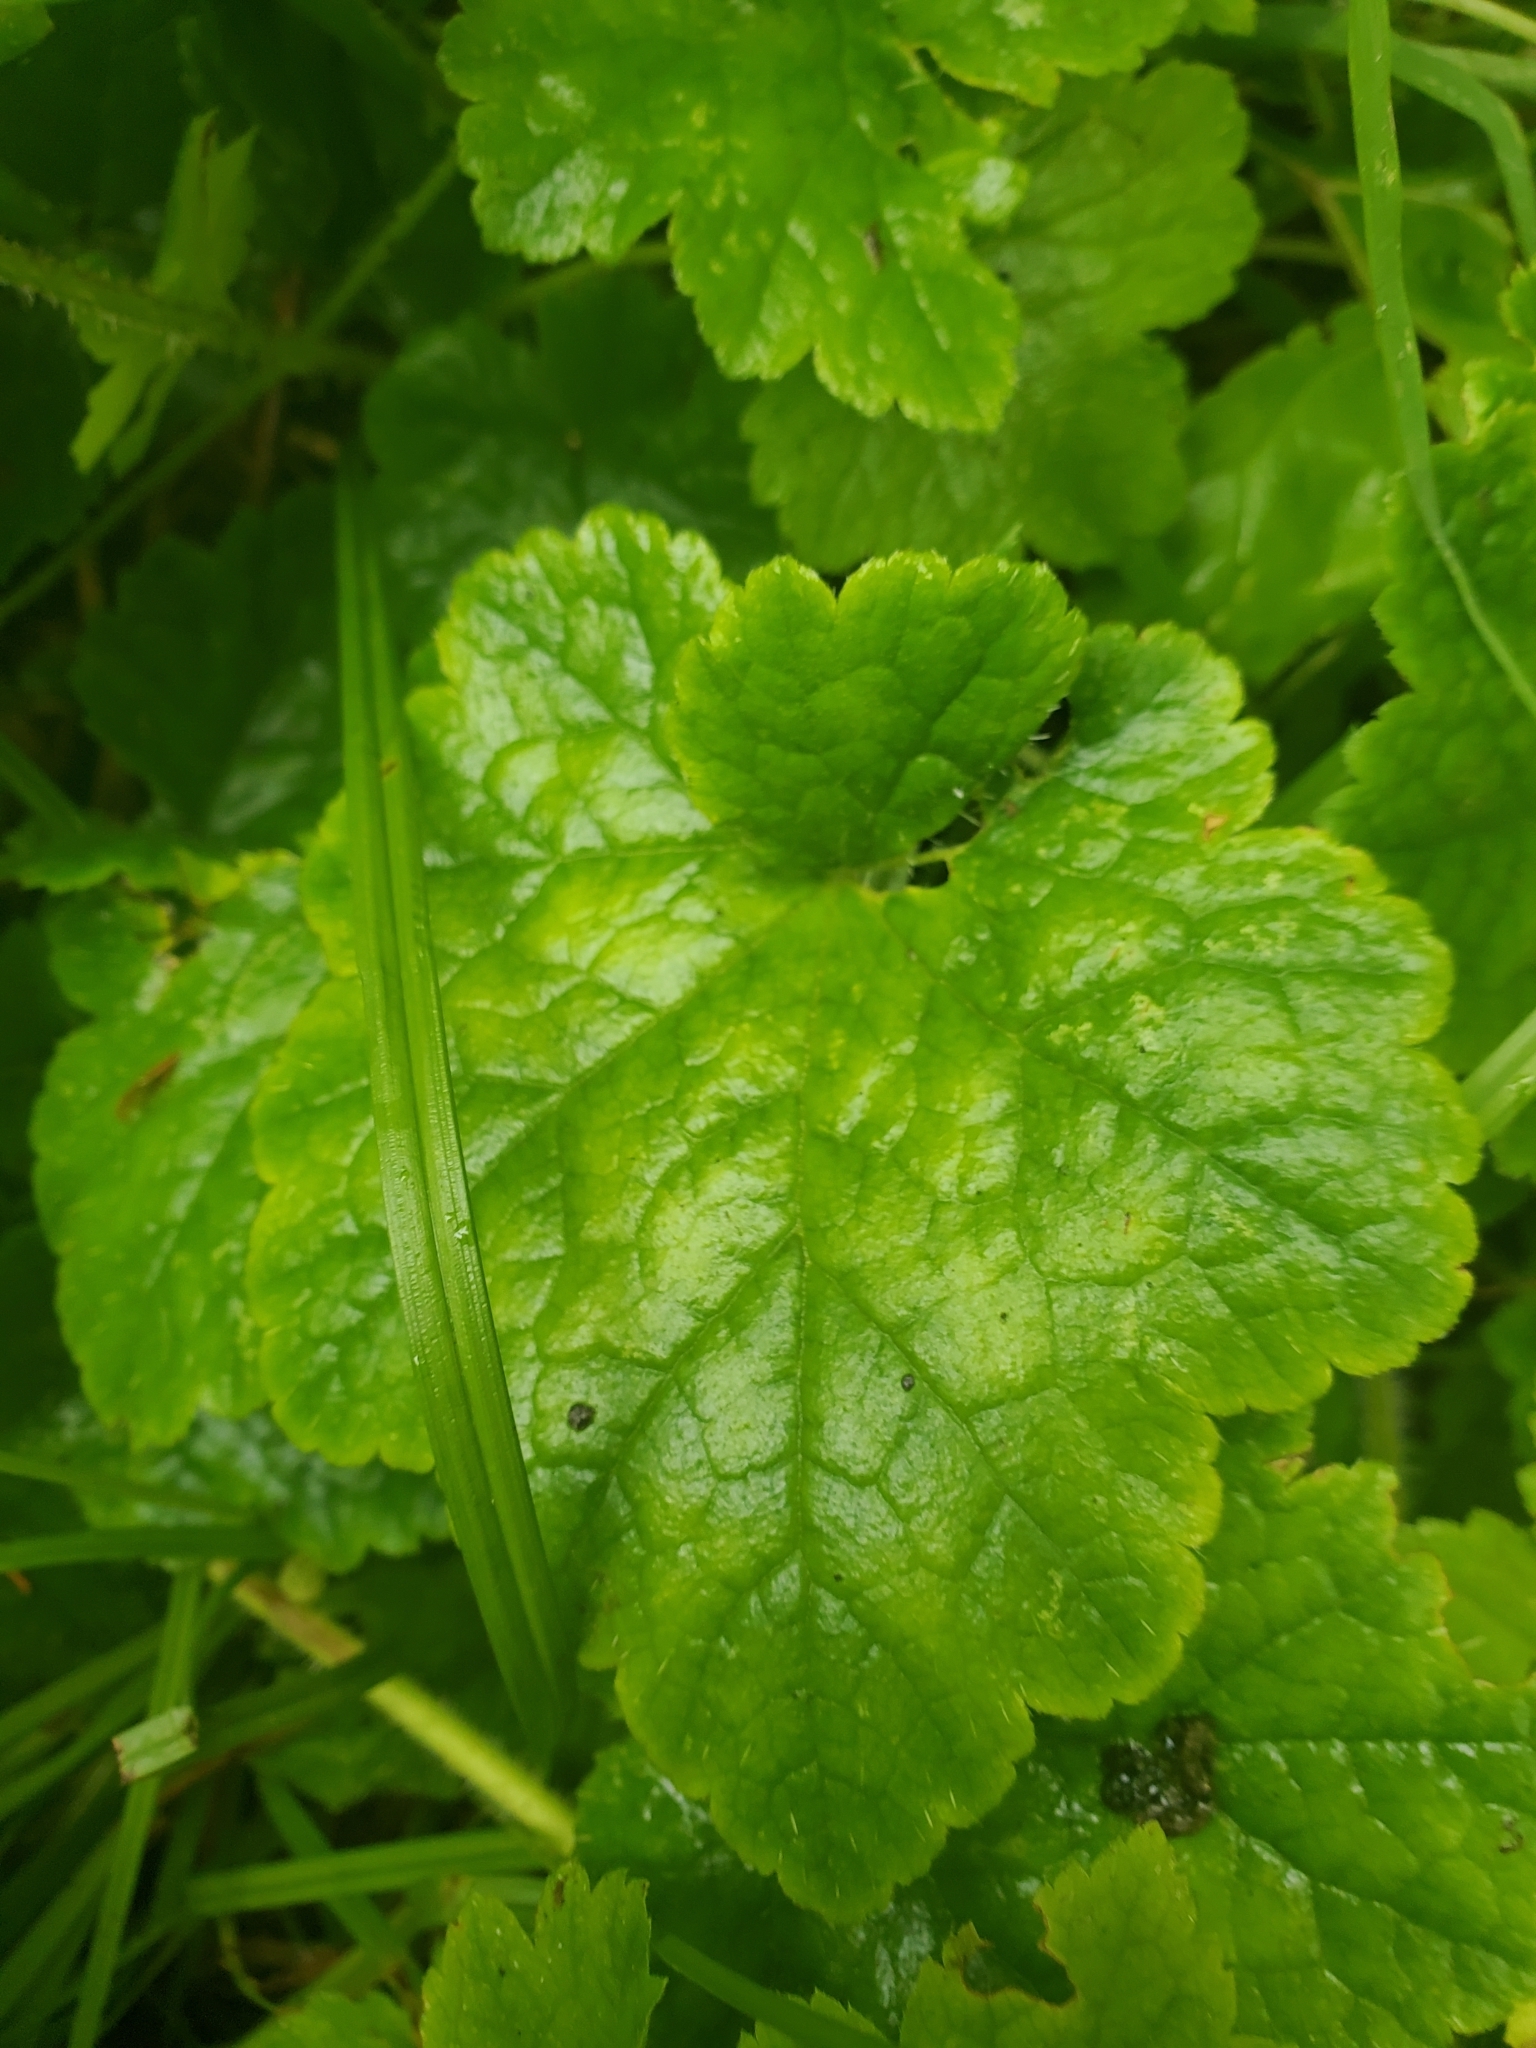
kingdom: Plantae
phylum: Tracheophyta
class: Magnoliopsida
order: Saxifragales
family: Saxifragaceae
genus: Tellima
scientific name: Tellima grandiflora
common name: Fringecups
